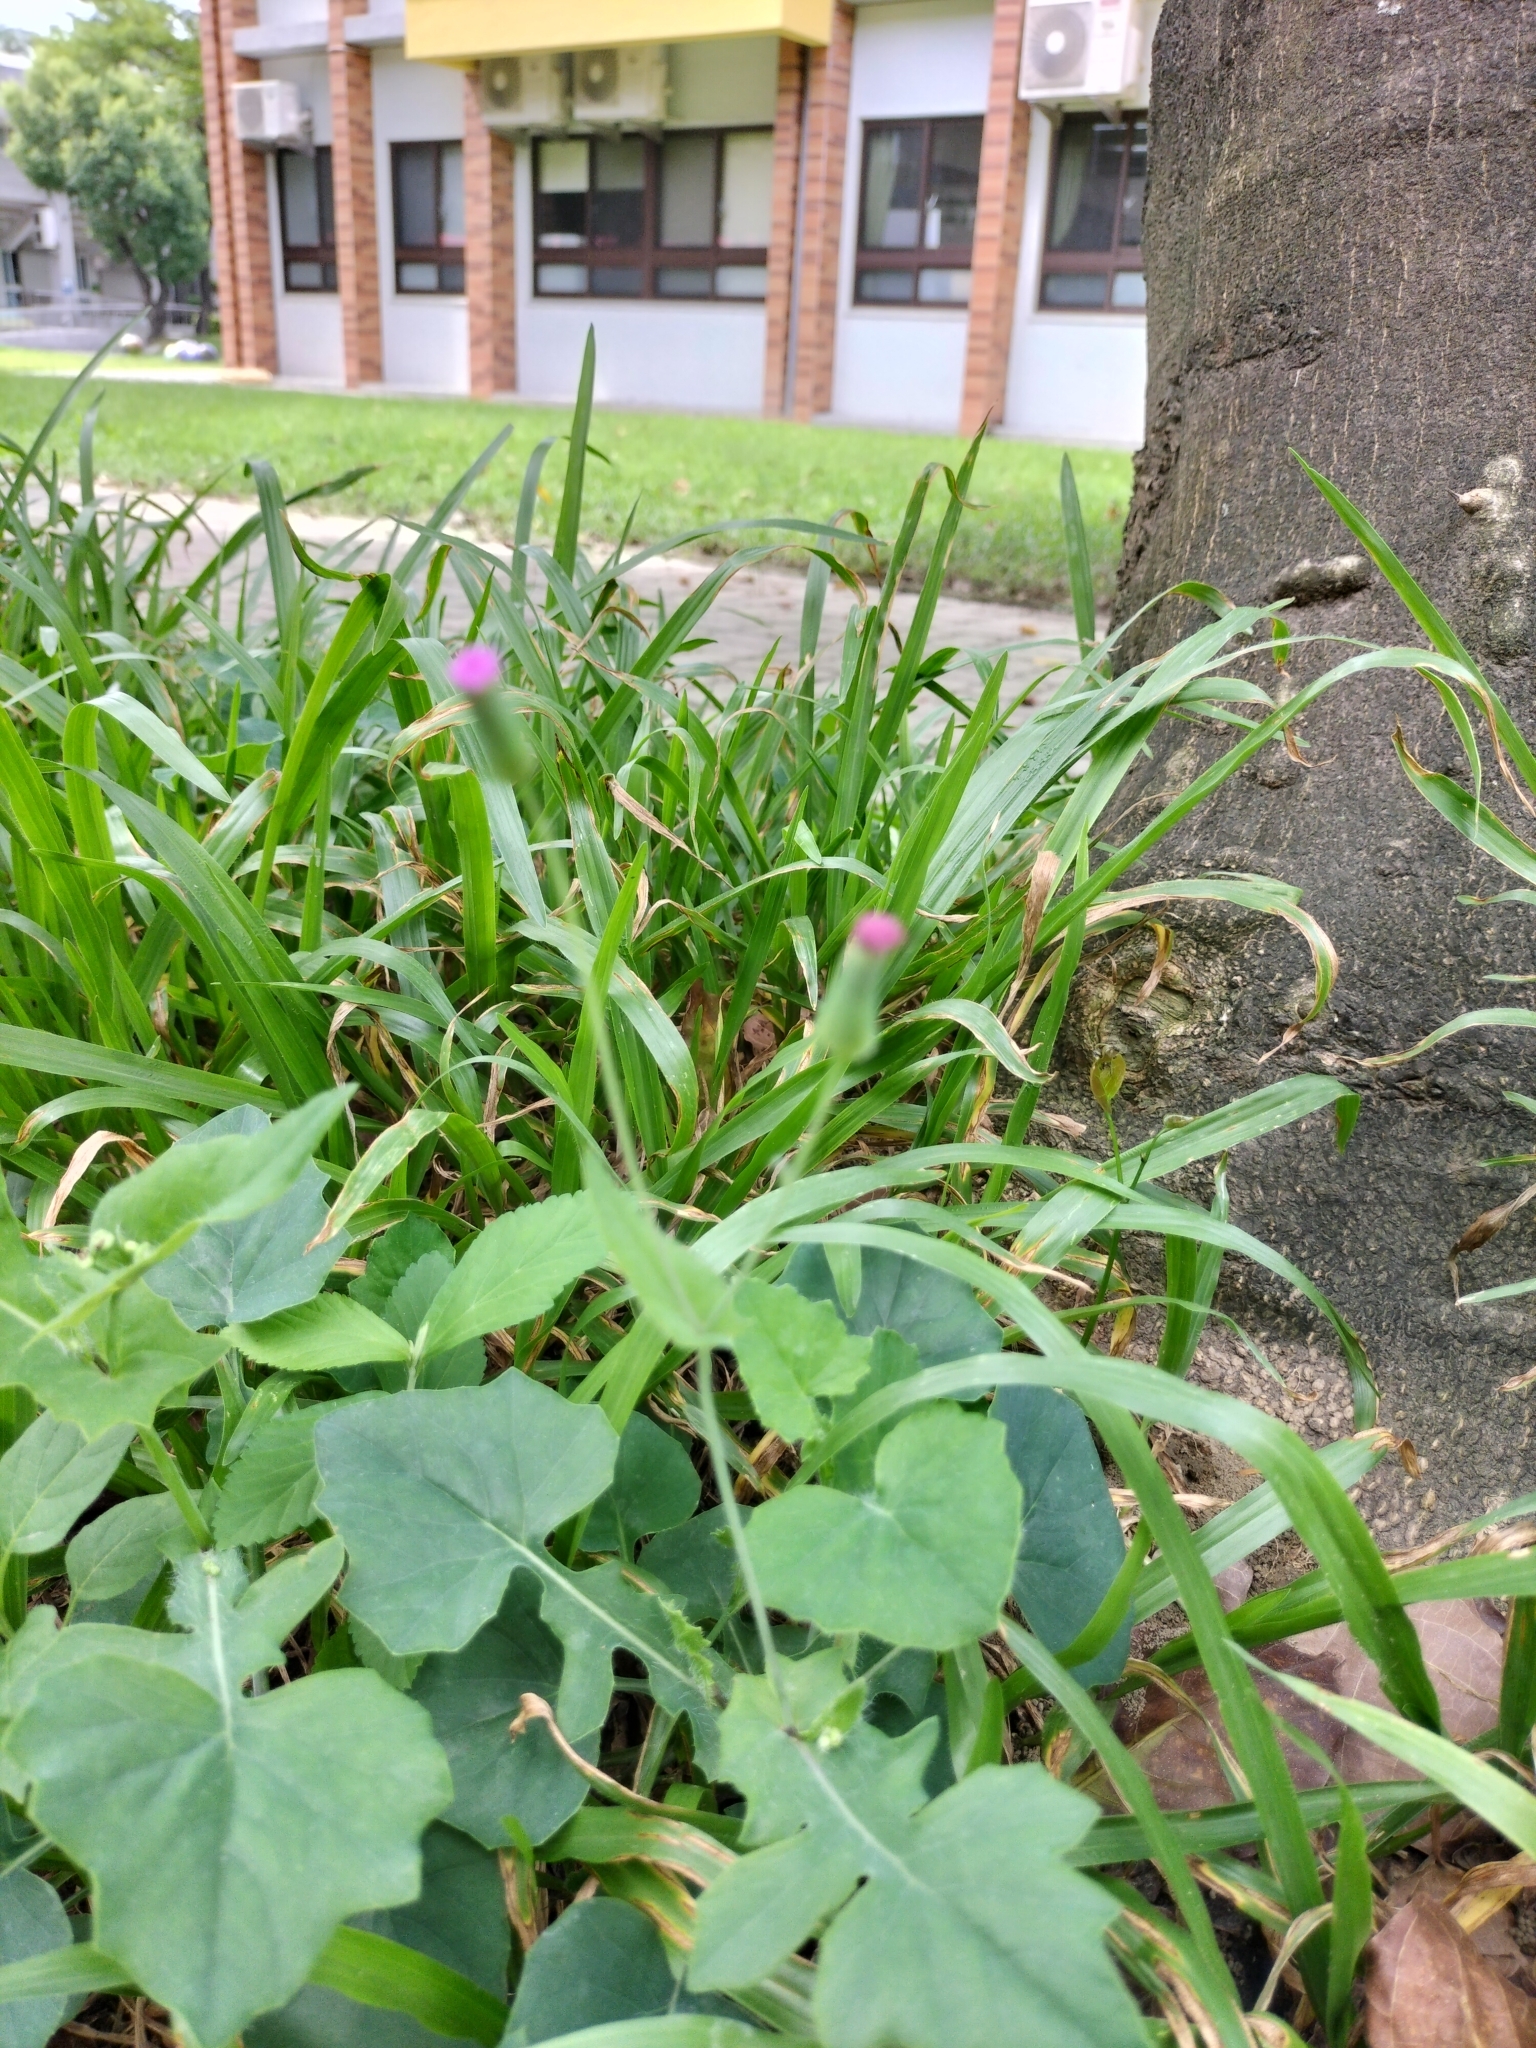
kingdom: Plantae
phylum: Tracheophyta
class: Magnoliopsida
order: Asterales
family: Asteraceae
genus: Emilia
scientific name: Emilia javanica
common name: Tassel-flower
